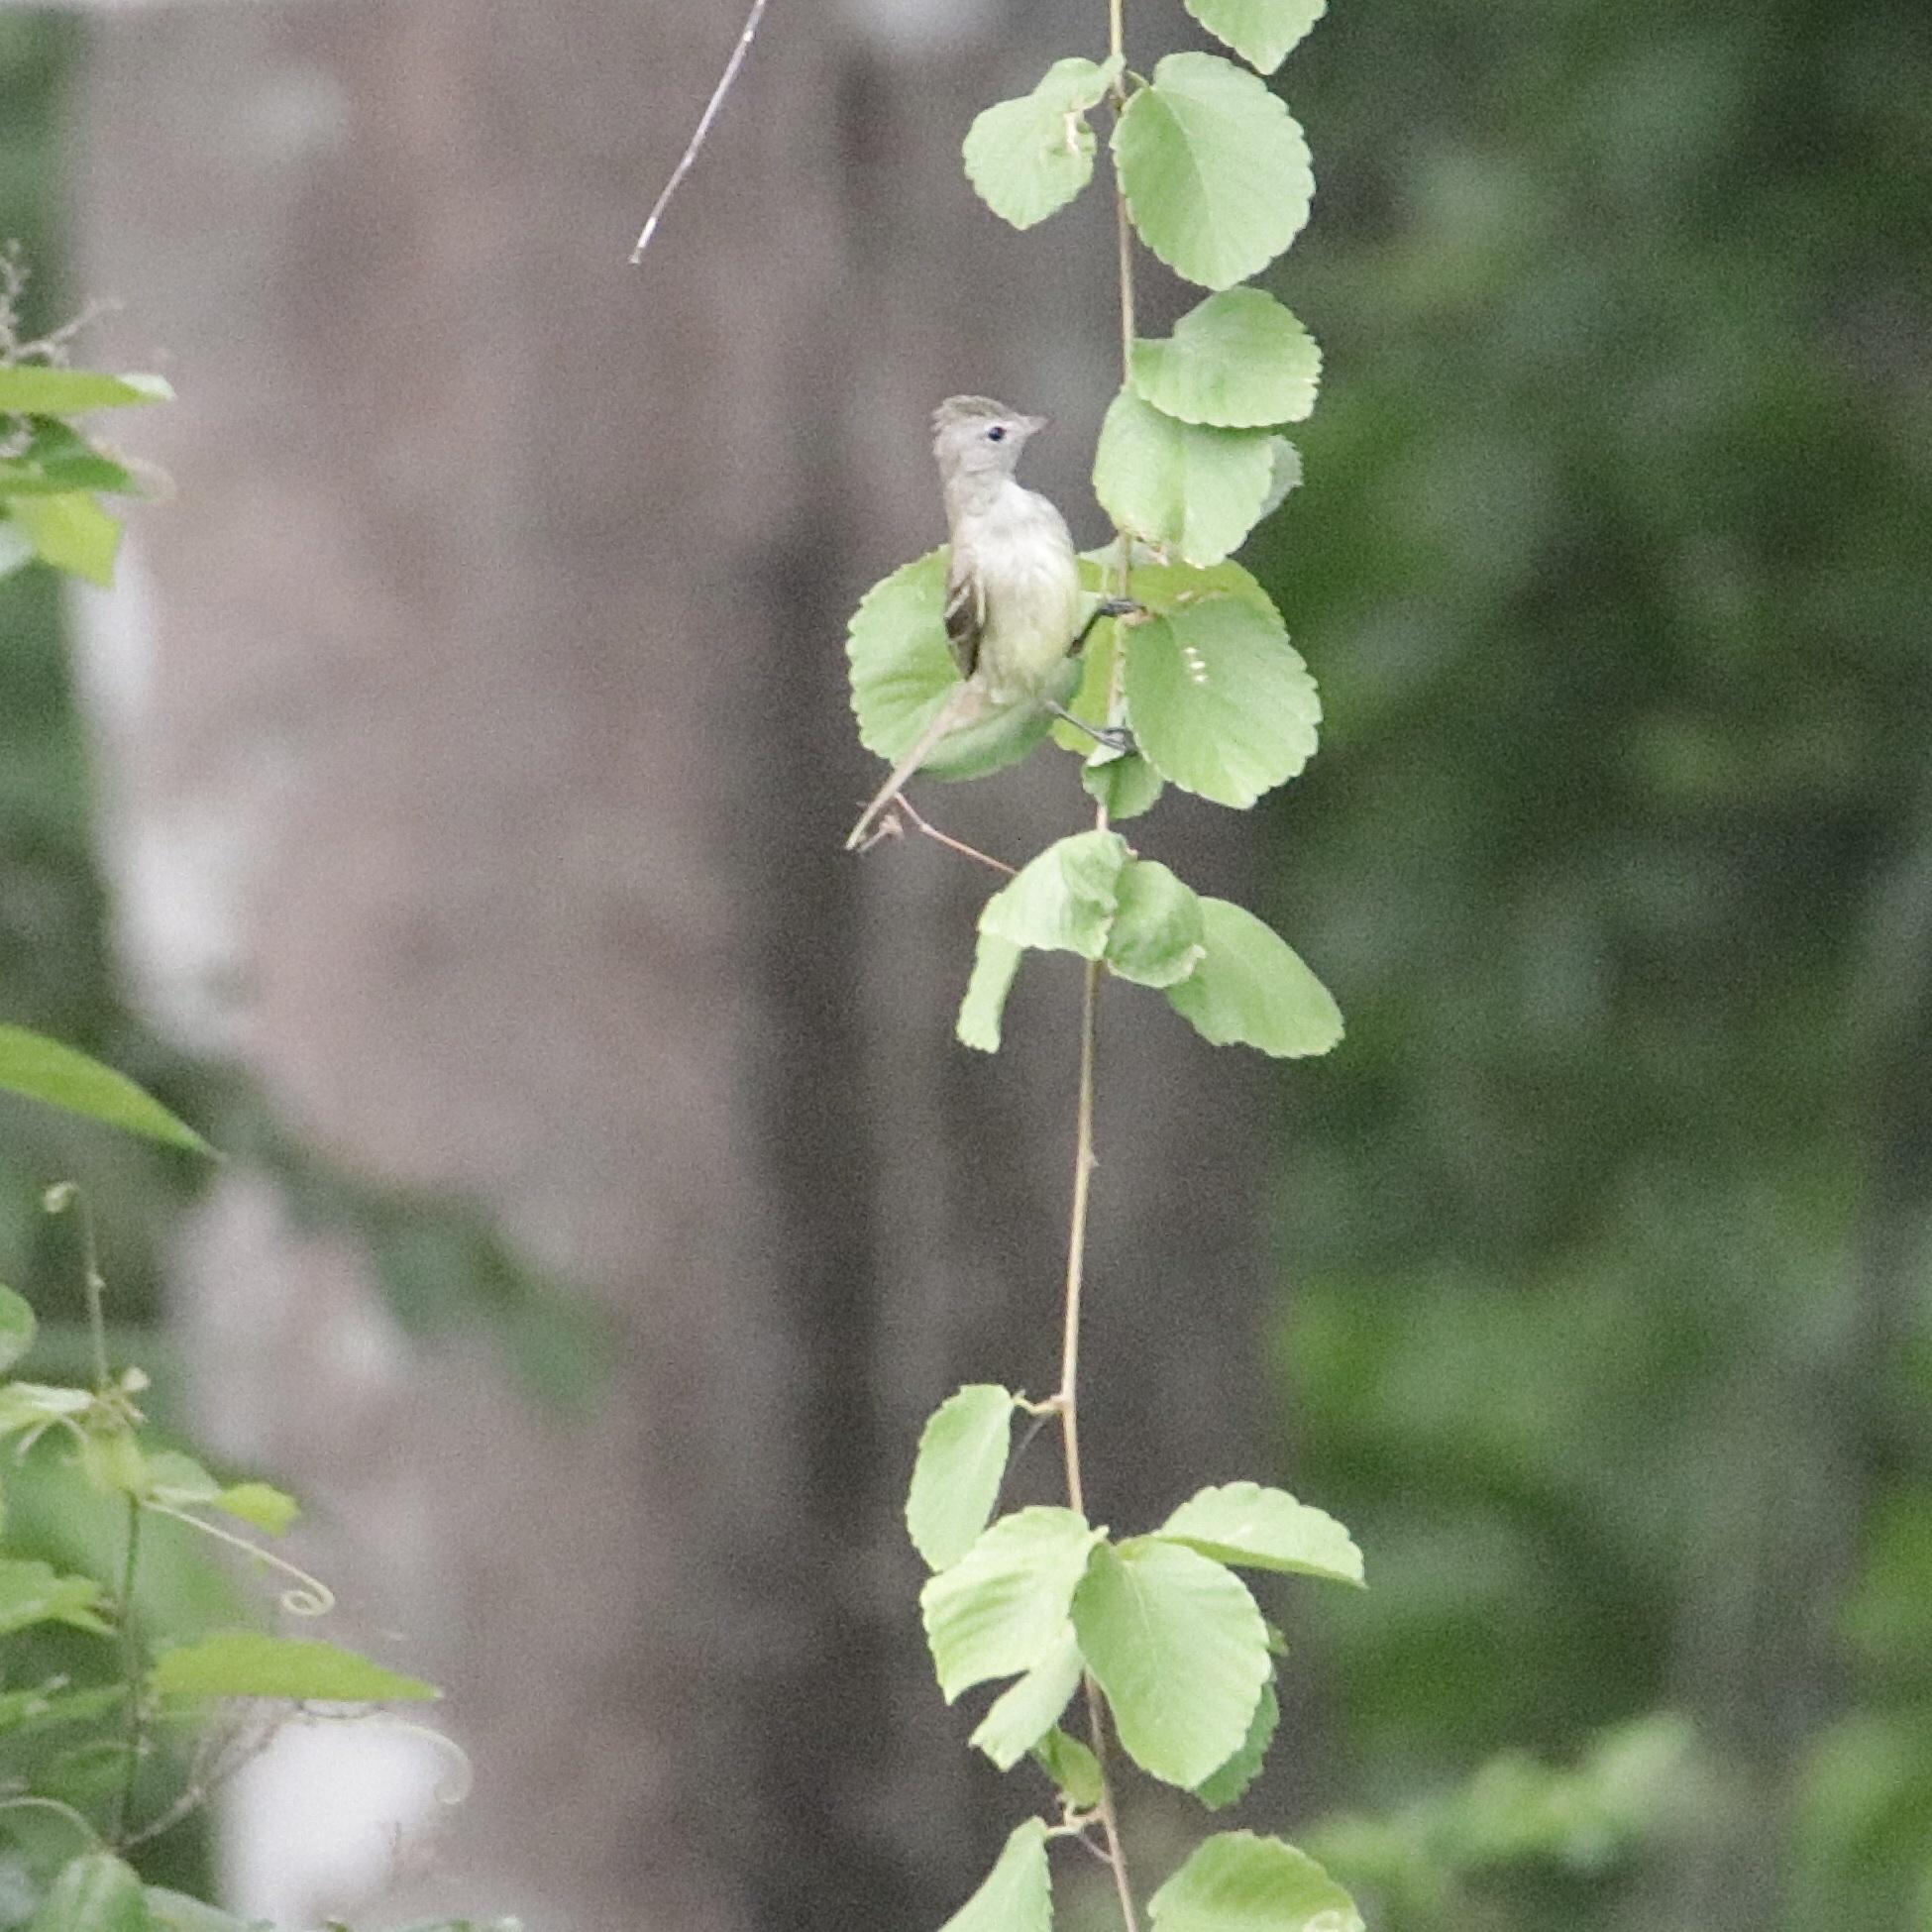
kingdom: Animalia
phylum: Chordata
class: Aves
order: Passeriformes
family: Tyrannidae
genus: Elaenia
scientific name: Elaenia flavogaster
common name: Yellow-bellied elaenia
